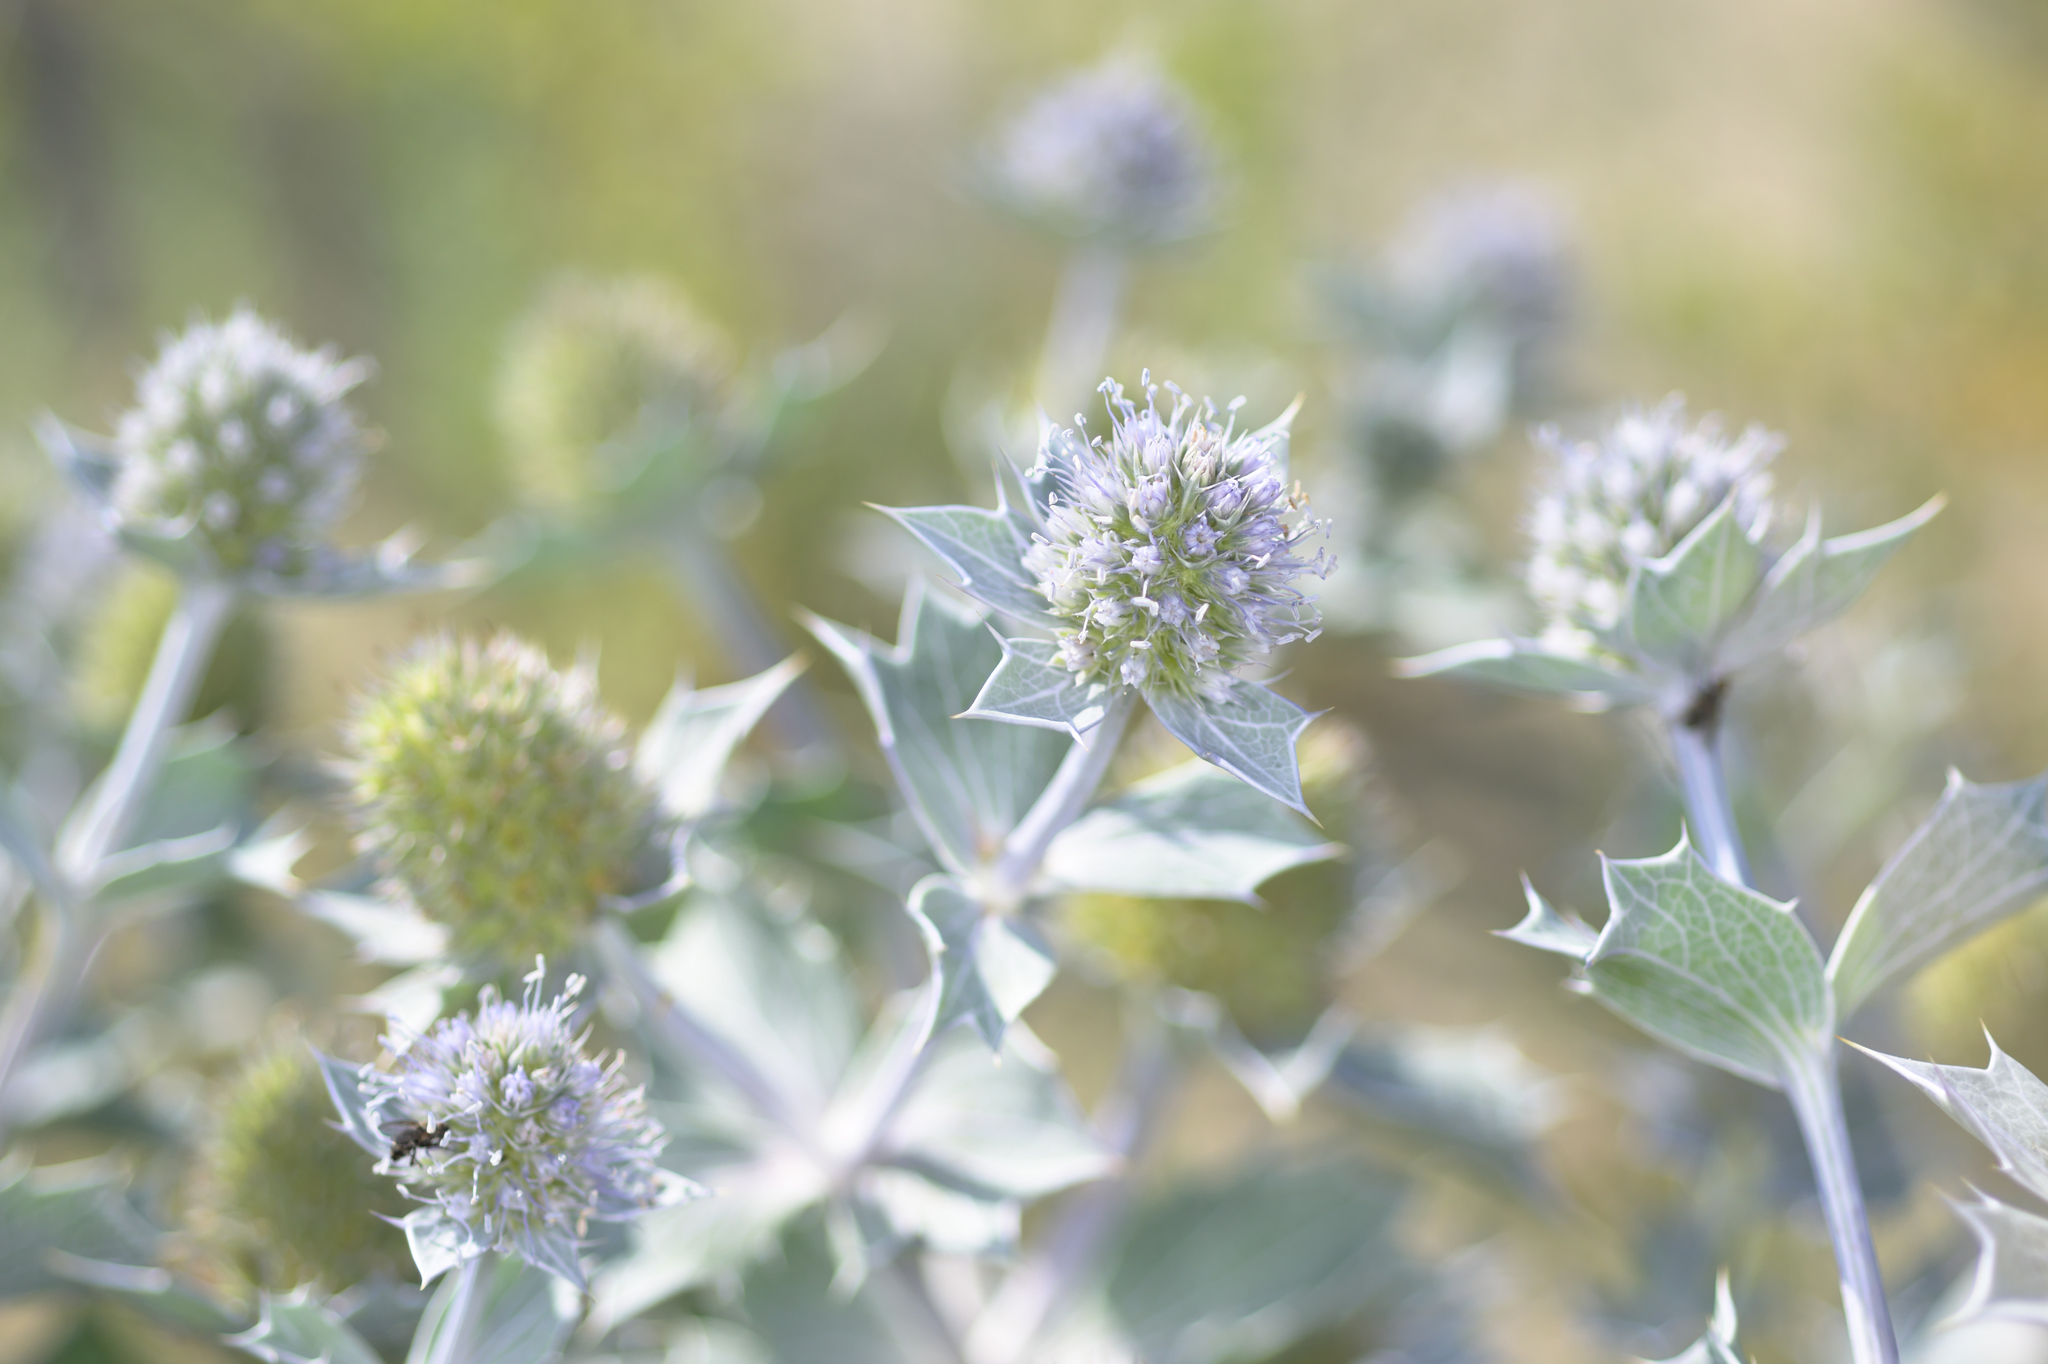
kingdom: Plantae
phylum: Tracheophyta
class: Magnoliopsida
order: Apiales
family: Apiaceae
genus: Eryngium
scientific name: Eryngium maritimum
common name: Sea-holly
